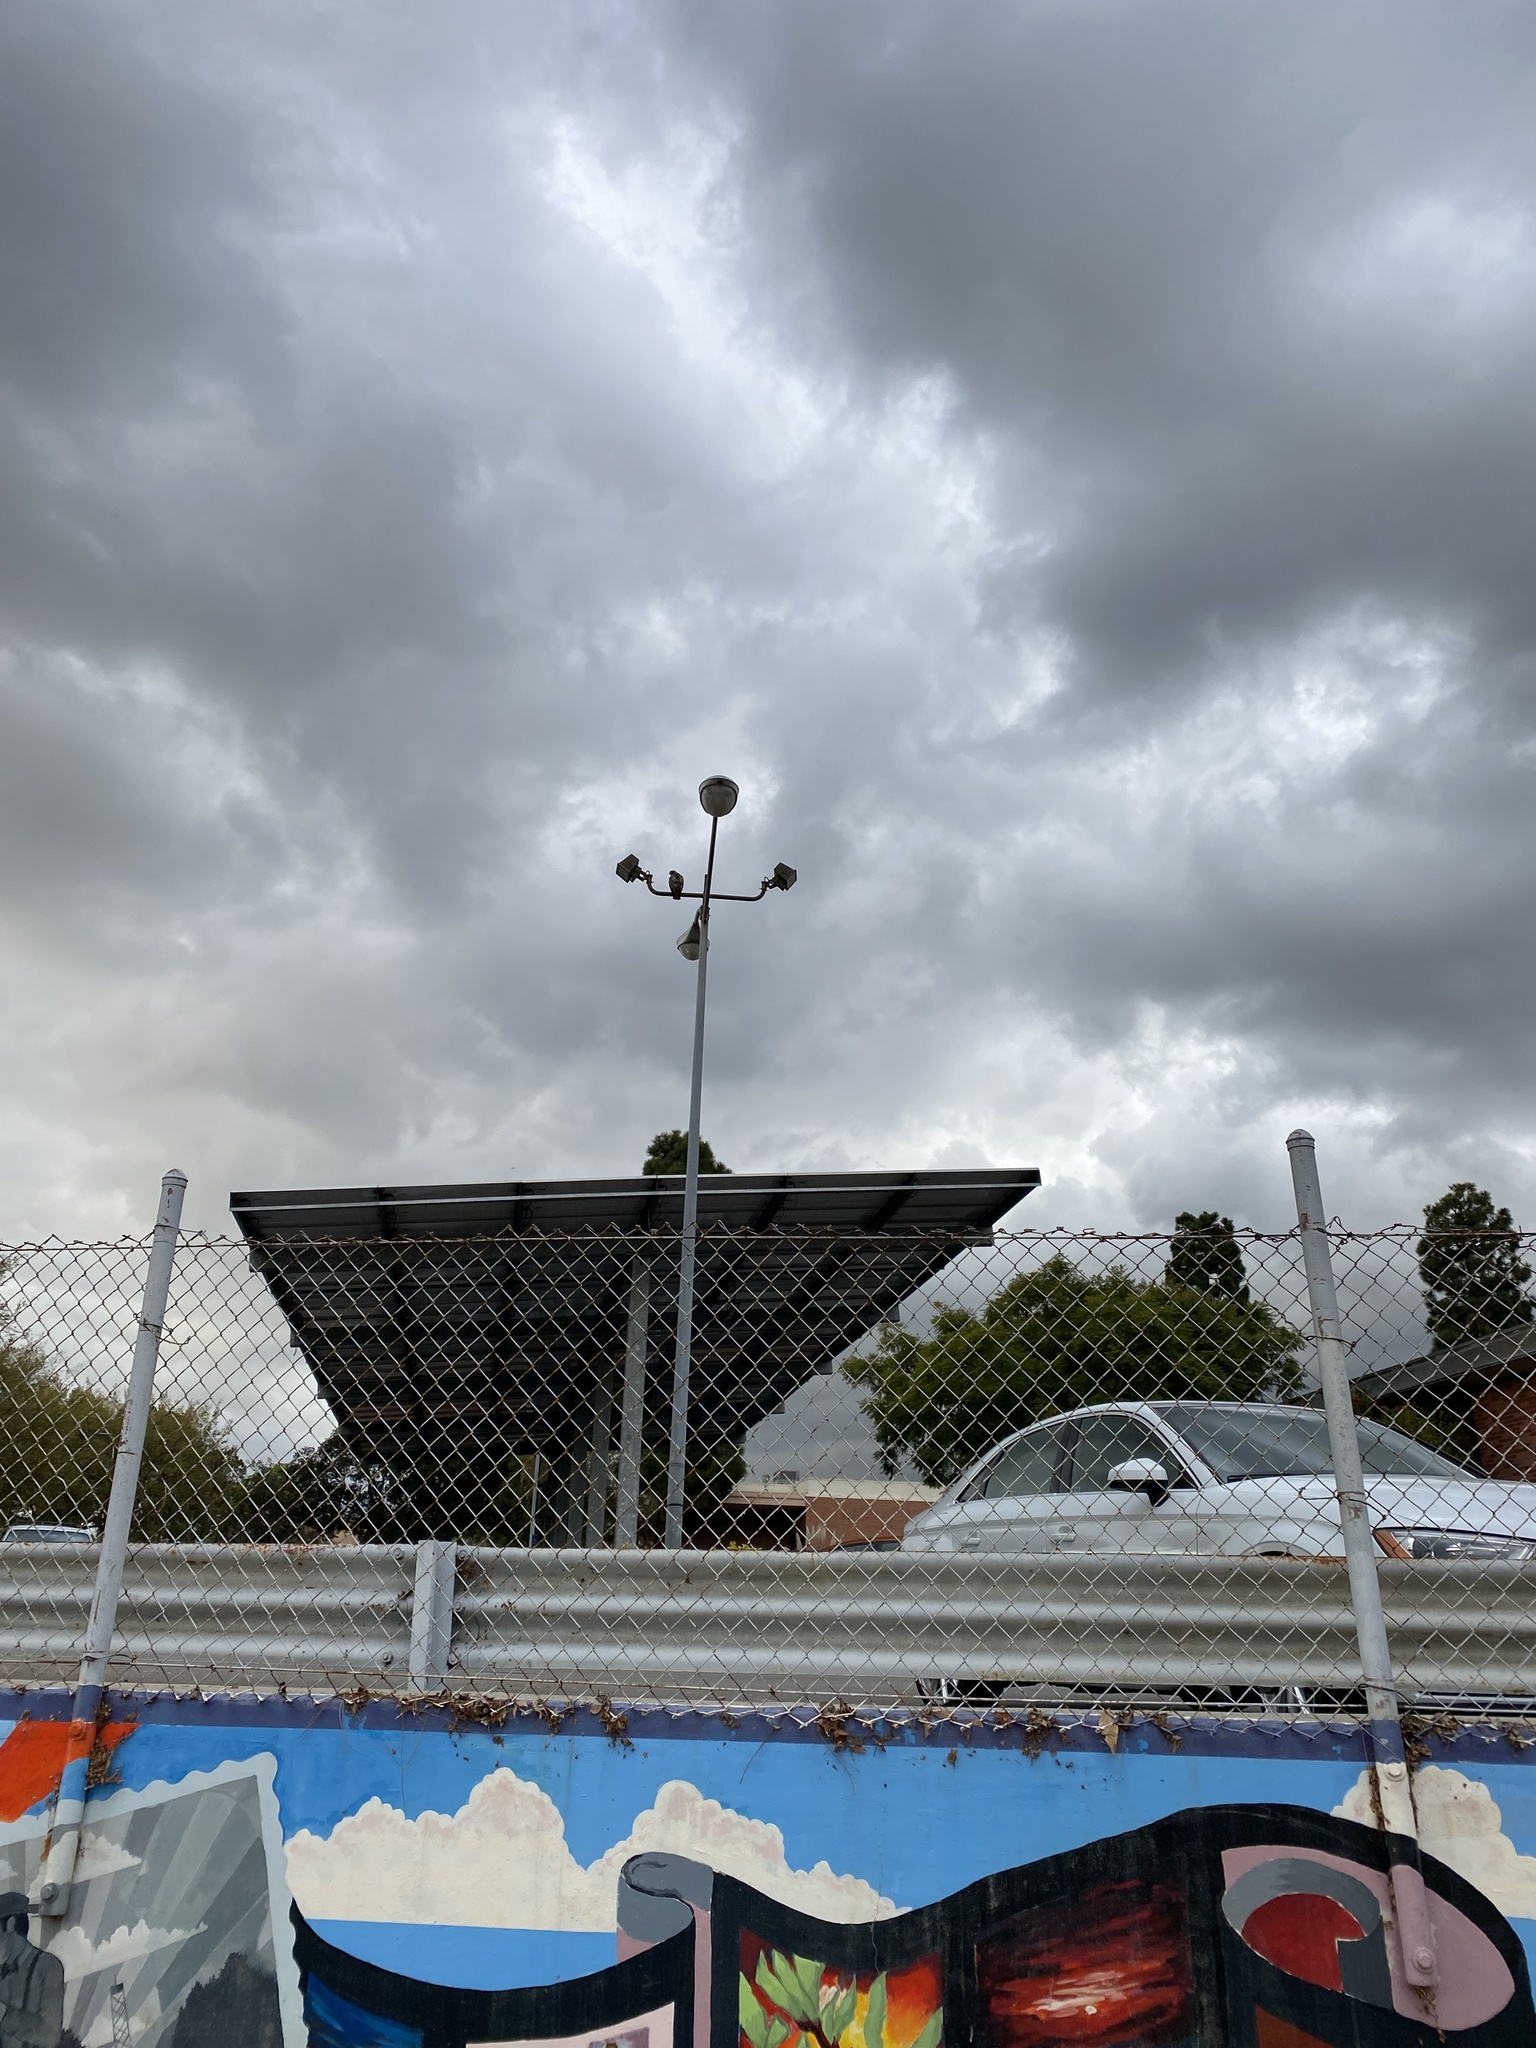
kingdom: Animalia
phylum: Chordata
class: Aves
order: Accipitriformes
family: Accipitridae
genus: Buteo
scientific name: Buteo jamaicensis
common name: Red-tailed hawk
